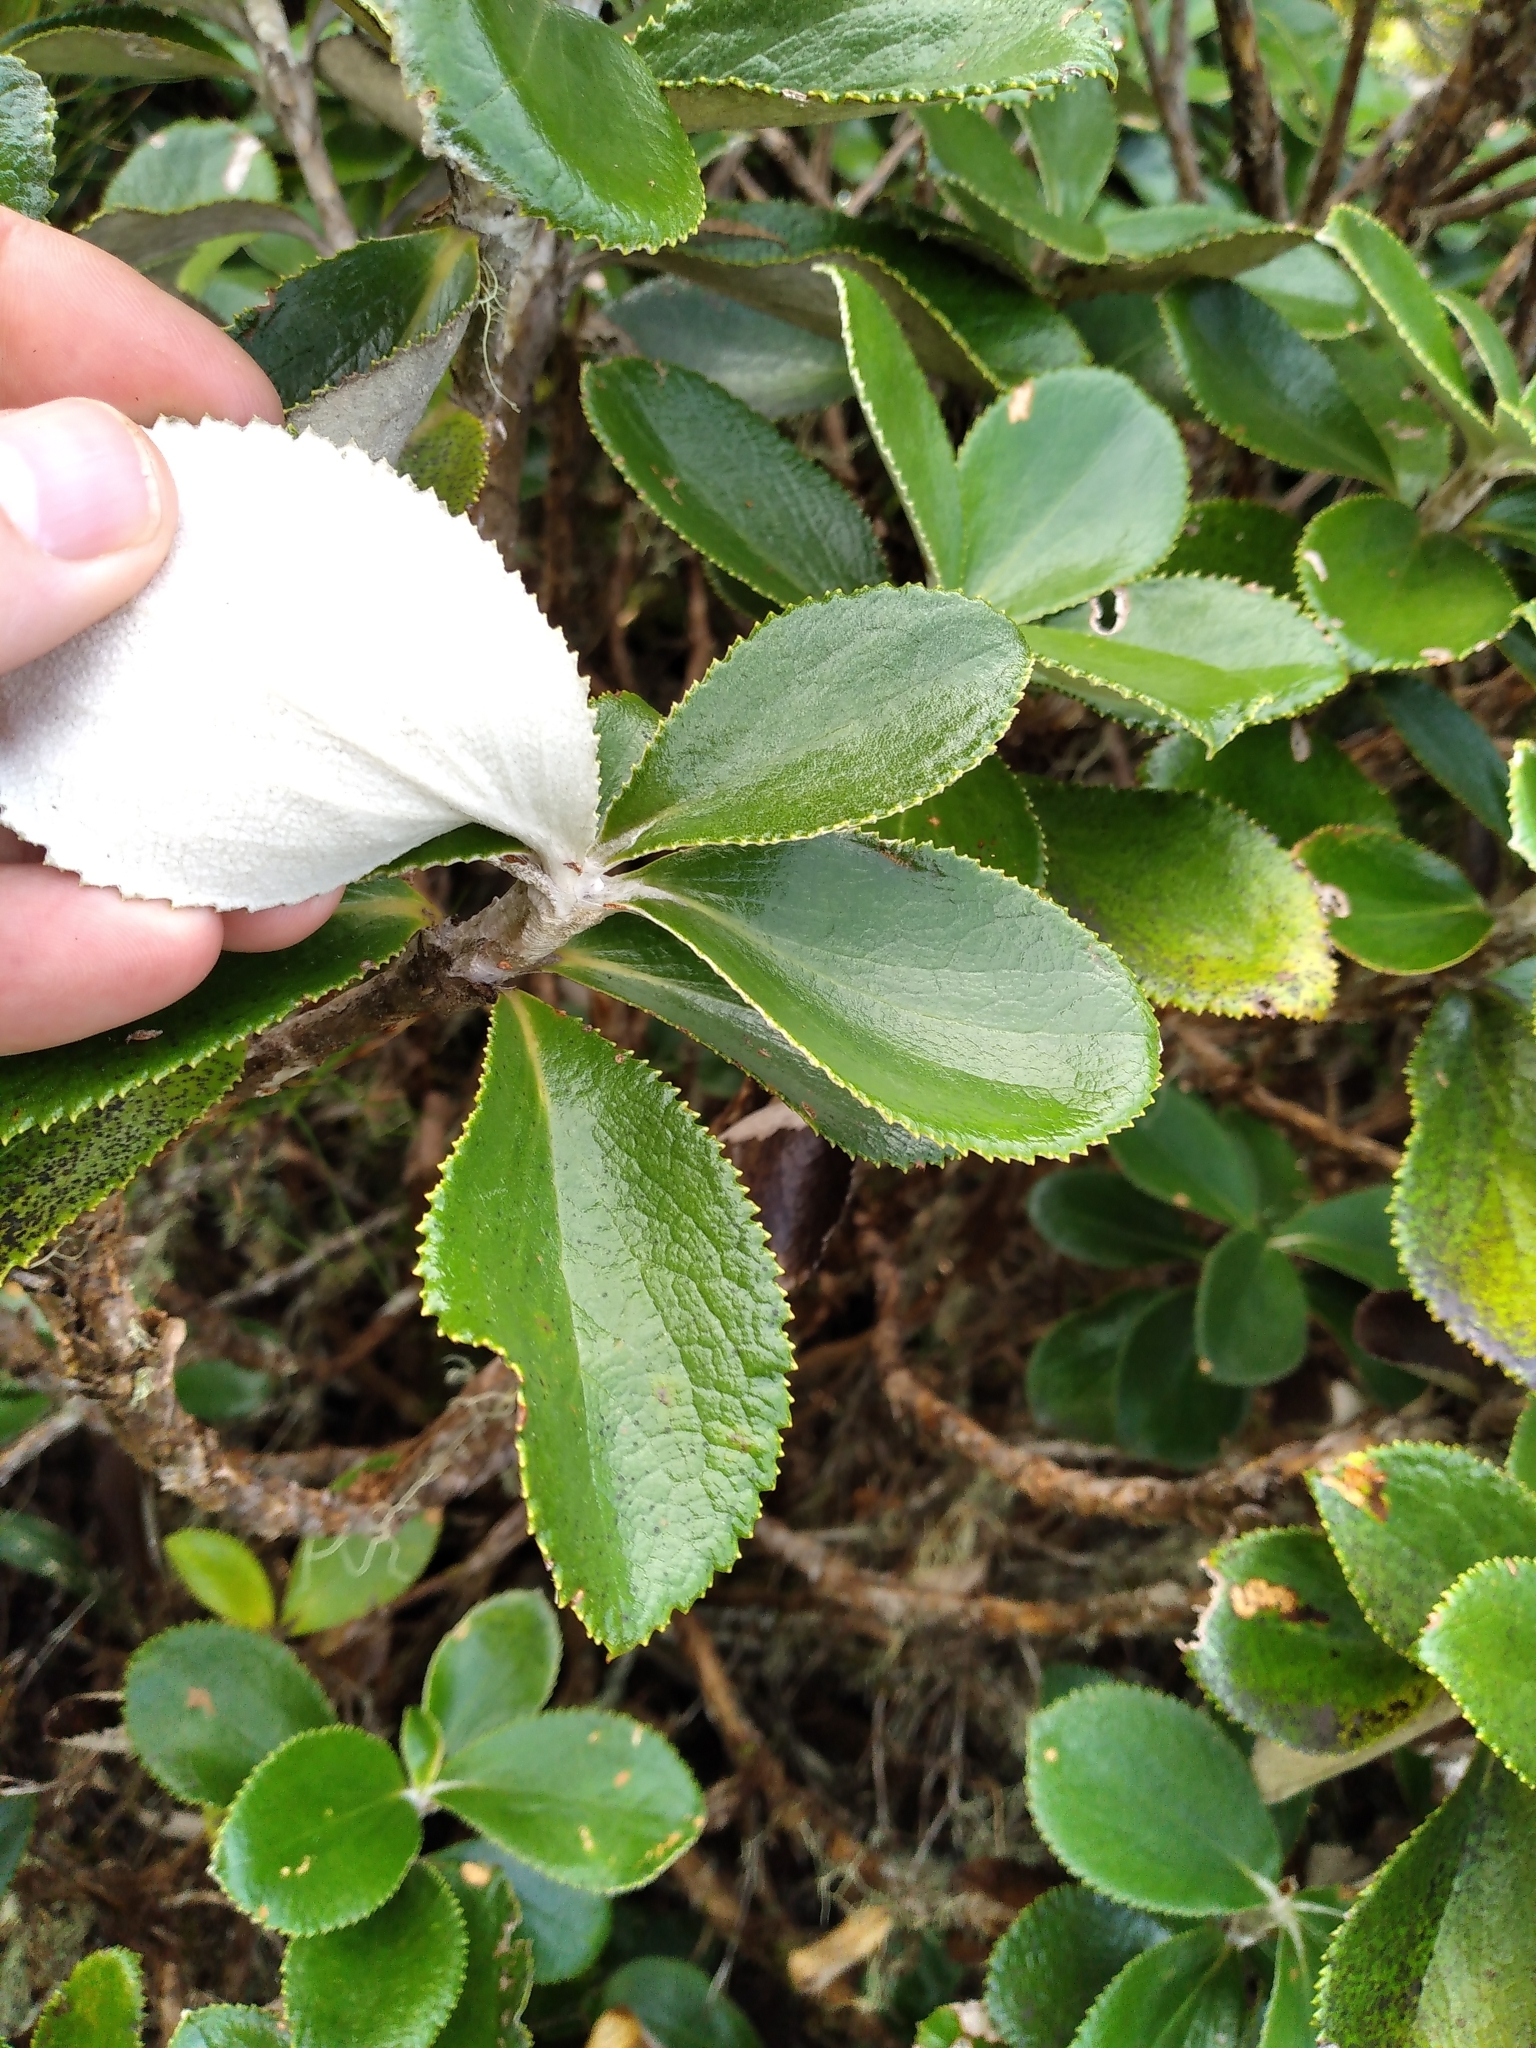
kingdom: Plantae
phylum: Tracheophyta
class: Magnoliopsida
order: Asterales
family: Asteraceae
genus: Macrolearia
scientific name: Macrolearia colensoi
